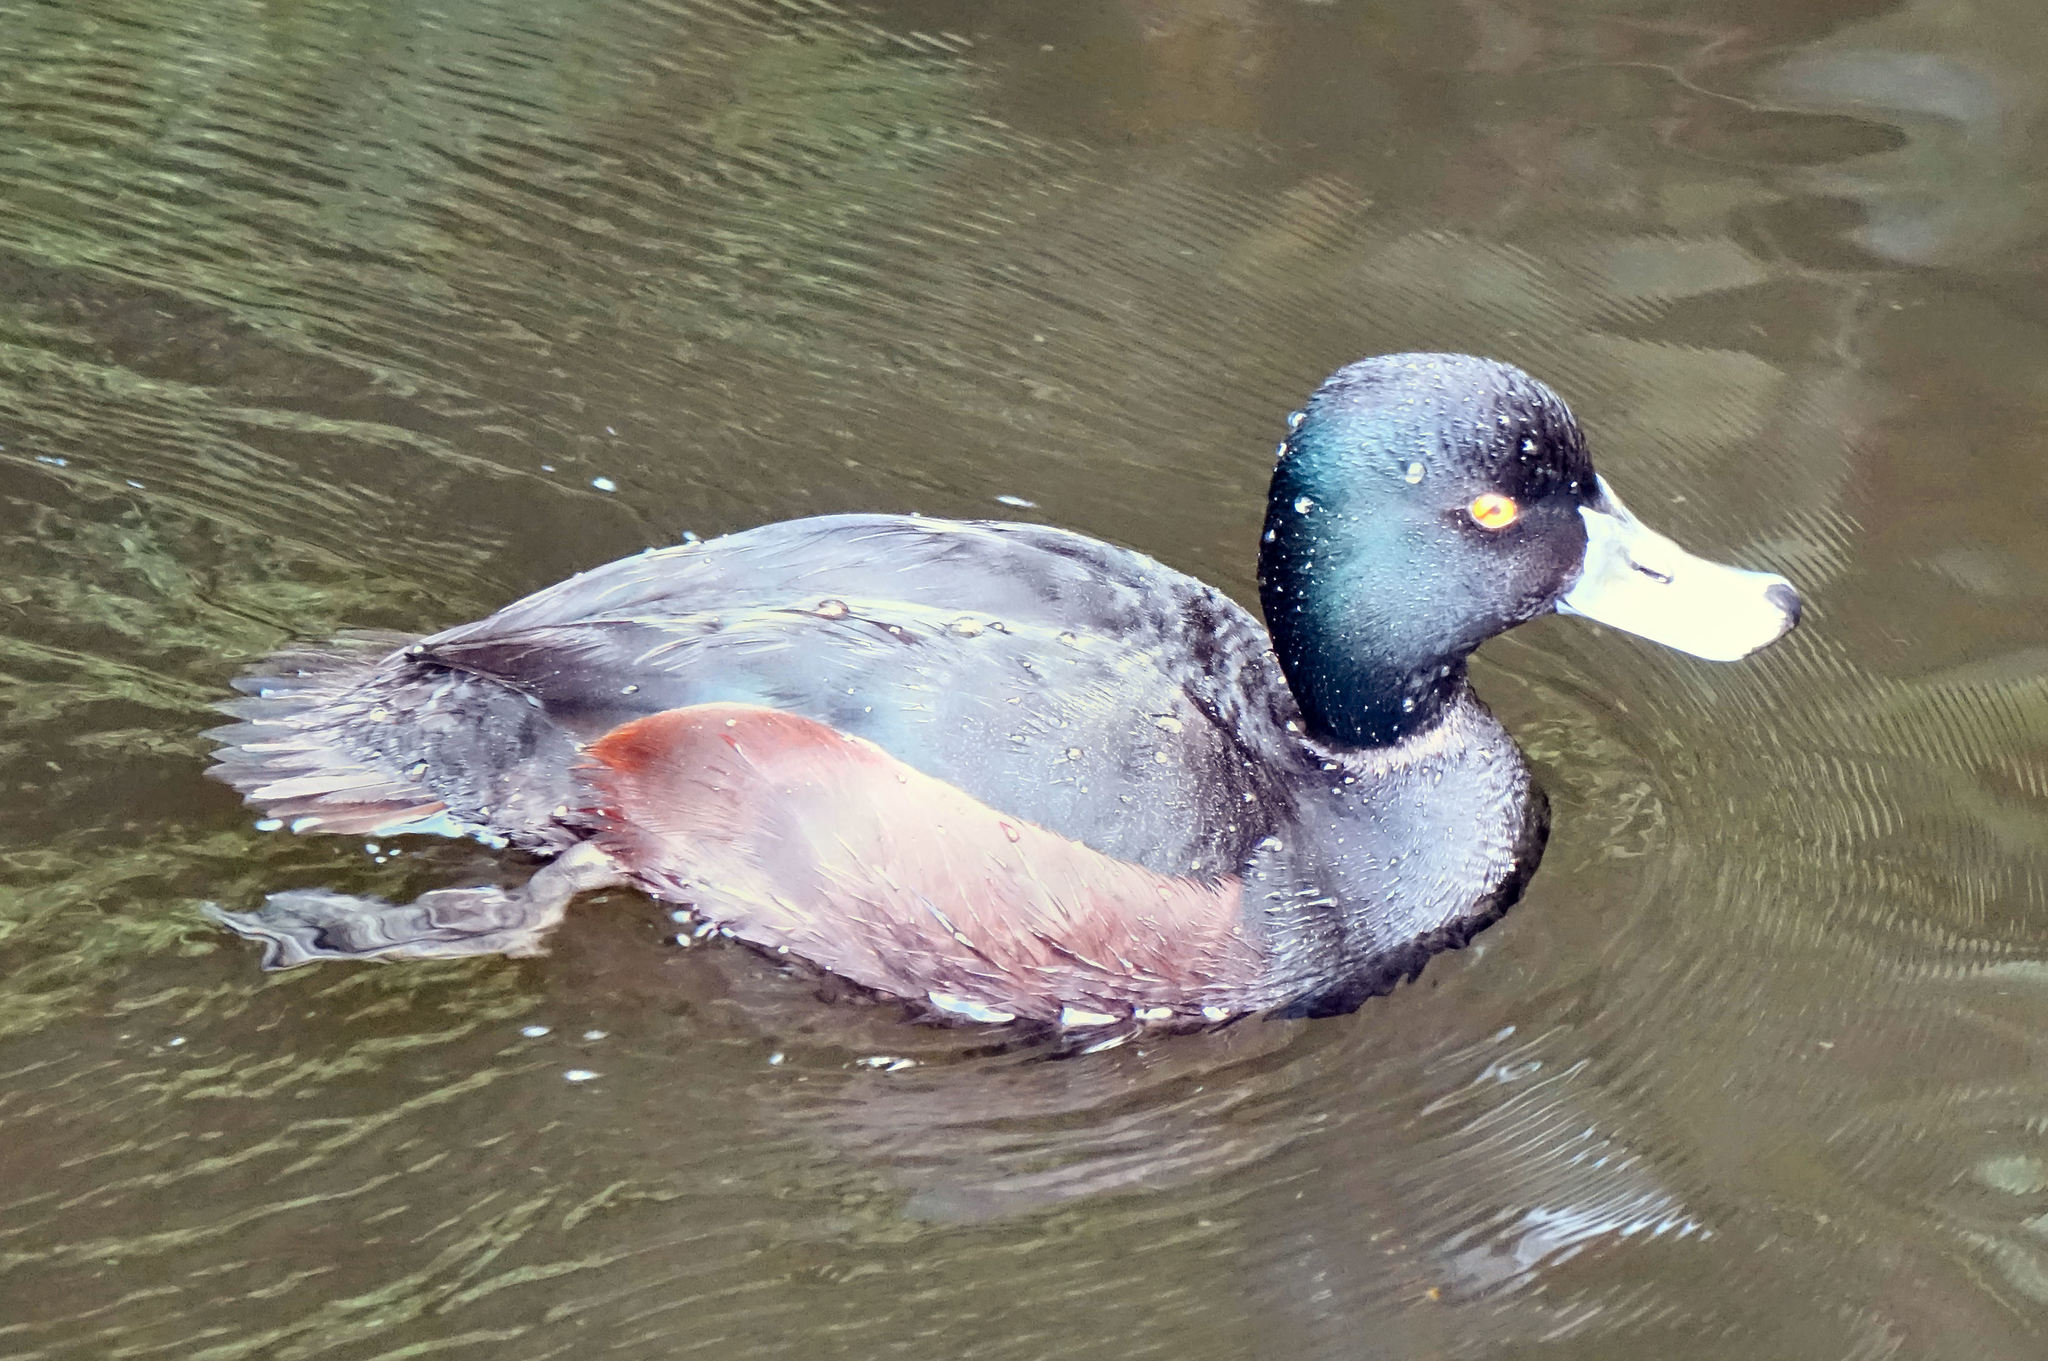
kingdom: Animalia
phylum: Chordata
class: Aves
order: Anseriformes
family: Anatidae
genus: Aythya
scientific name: Aythya novaeseelandiae
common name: New zealand scaup
